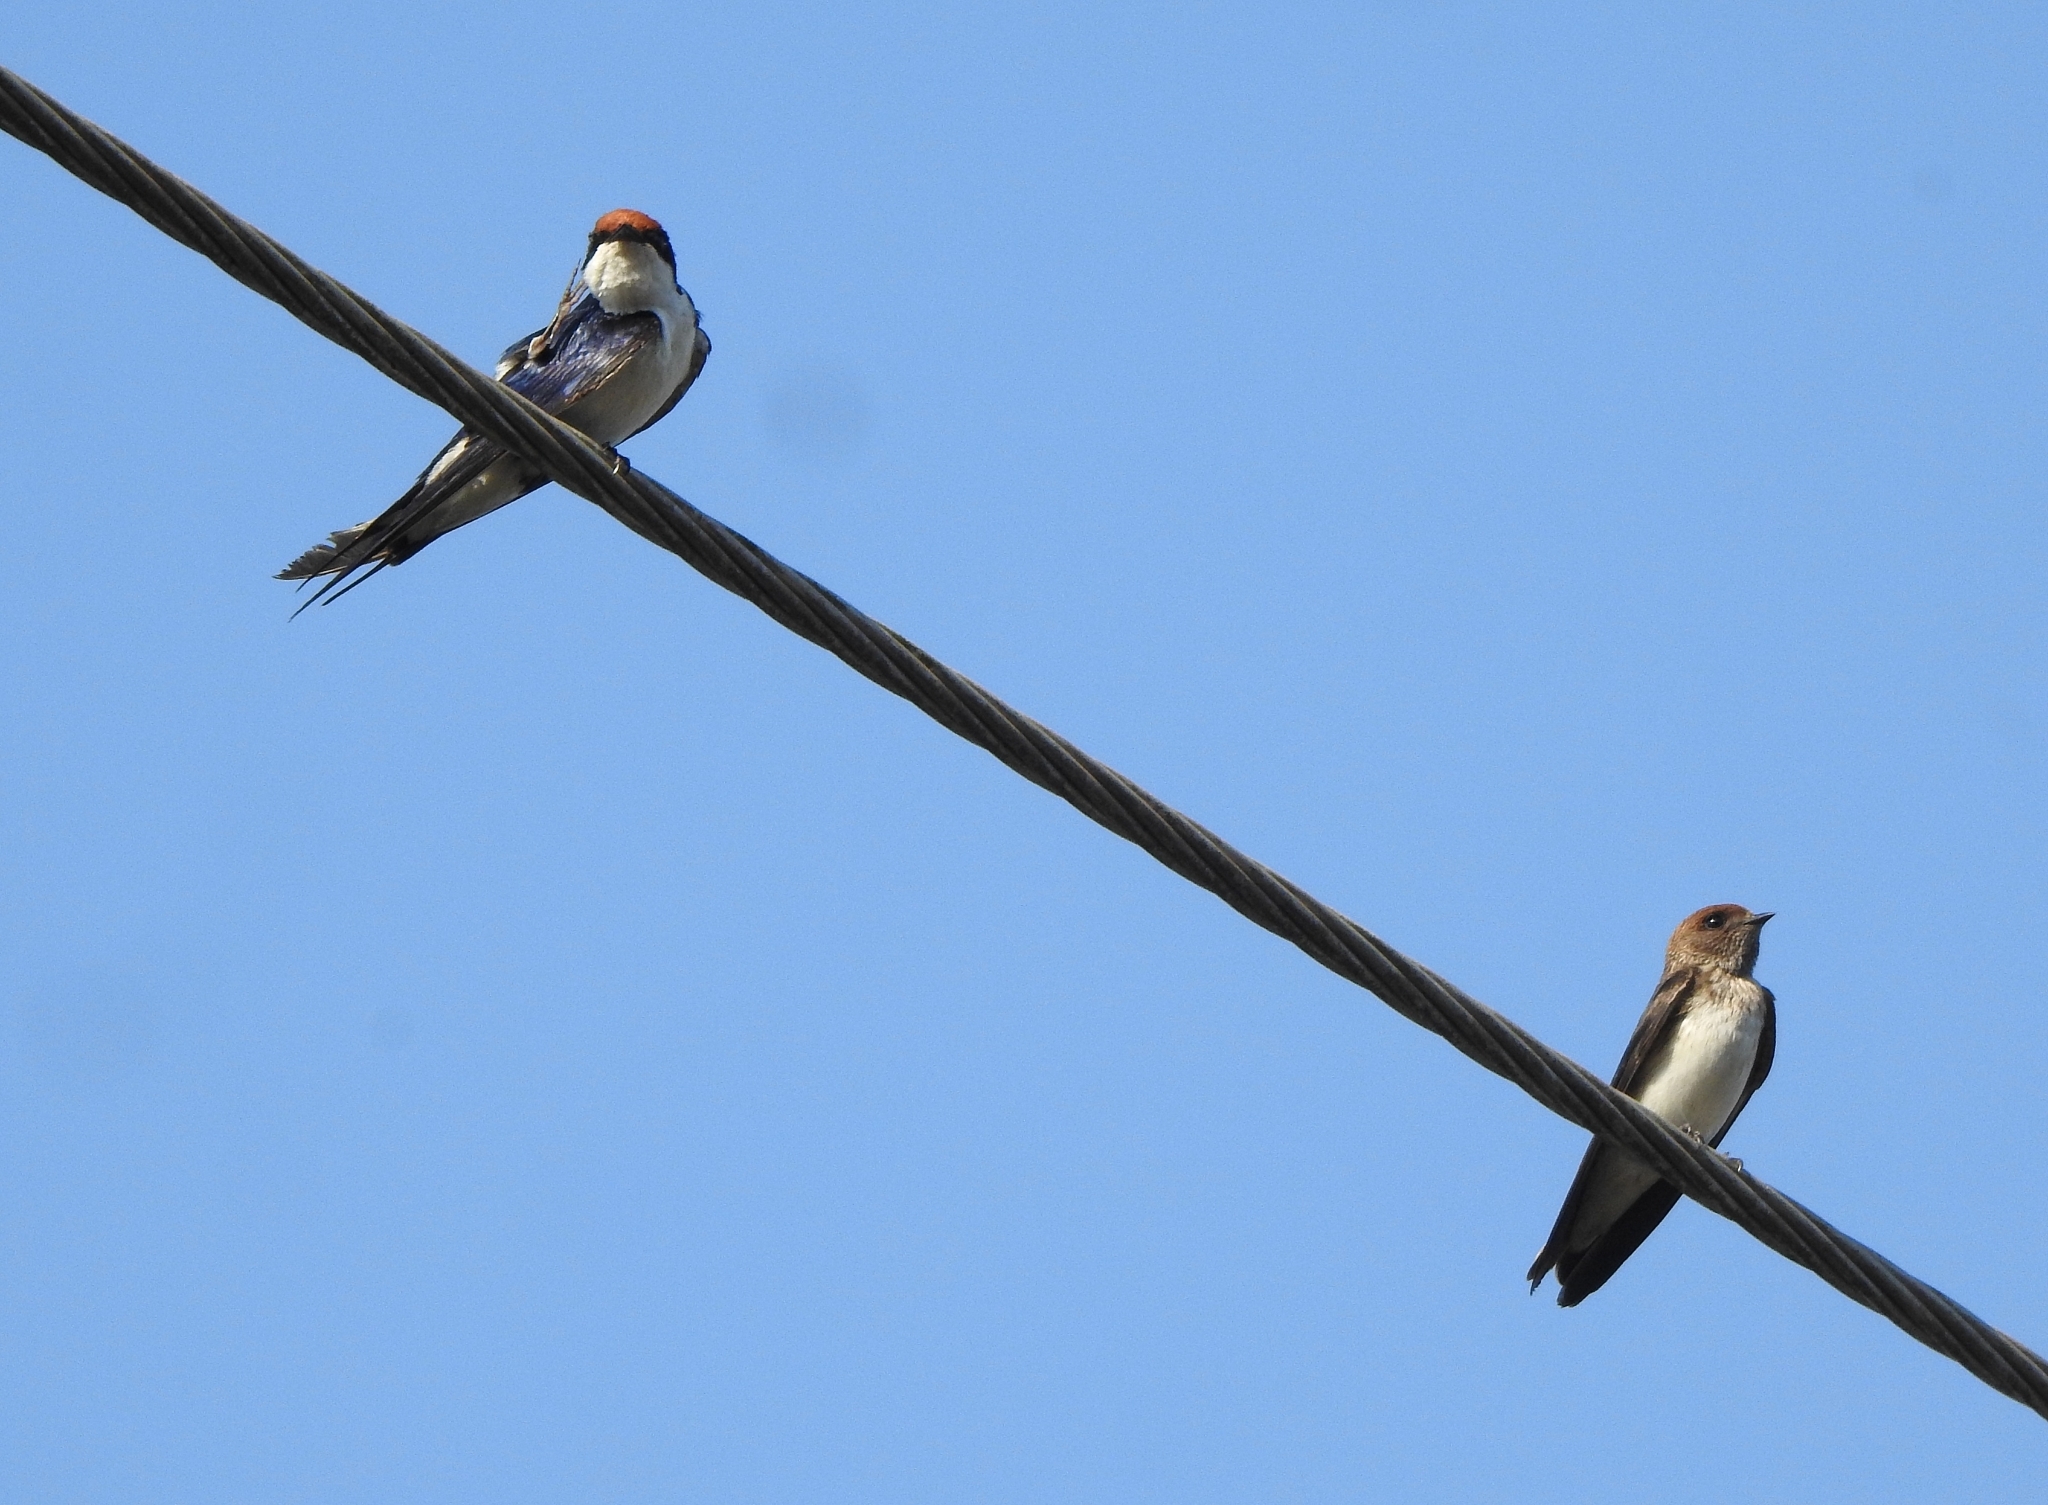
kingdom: Animalia
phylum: Chordata
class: Aves
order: Passeriformes
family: Hirundinidae
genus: Hirundo
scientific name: Hirundo smithii
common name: Wire-tailed swallow
